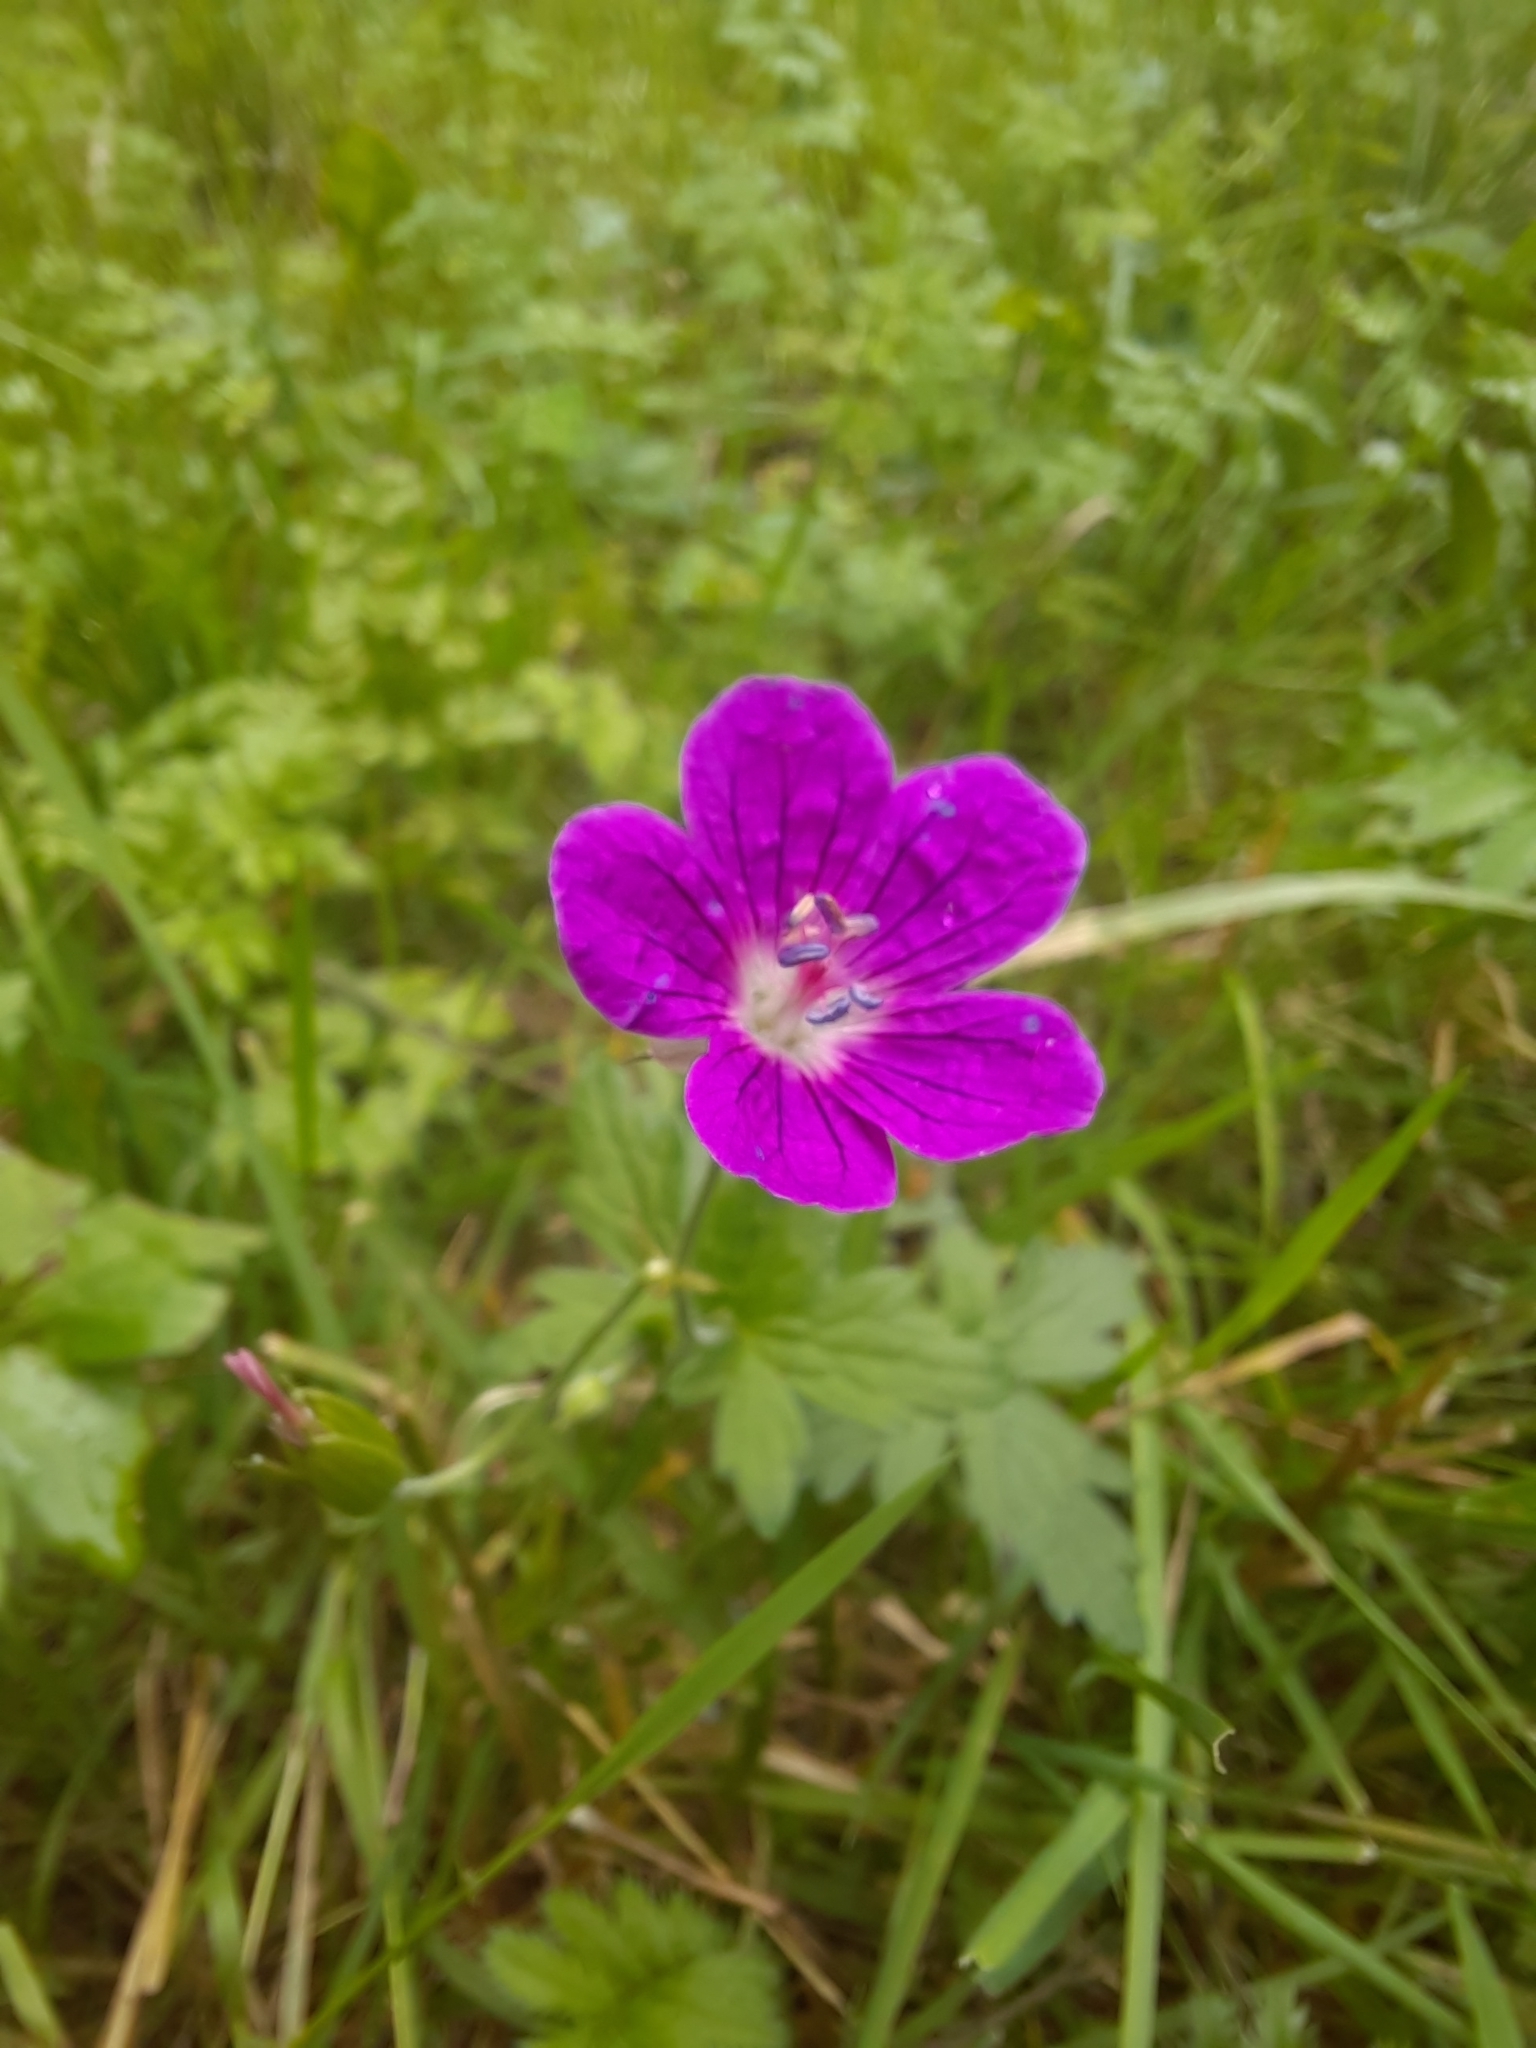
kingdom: Plantae
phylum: Tracheophyta
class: Magnoliopsida
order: Geraniales
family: Geraniaceae
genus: Geranium
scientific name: Geranium palustre
